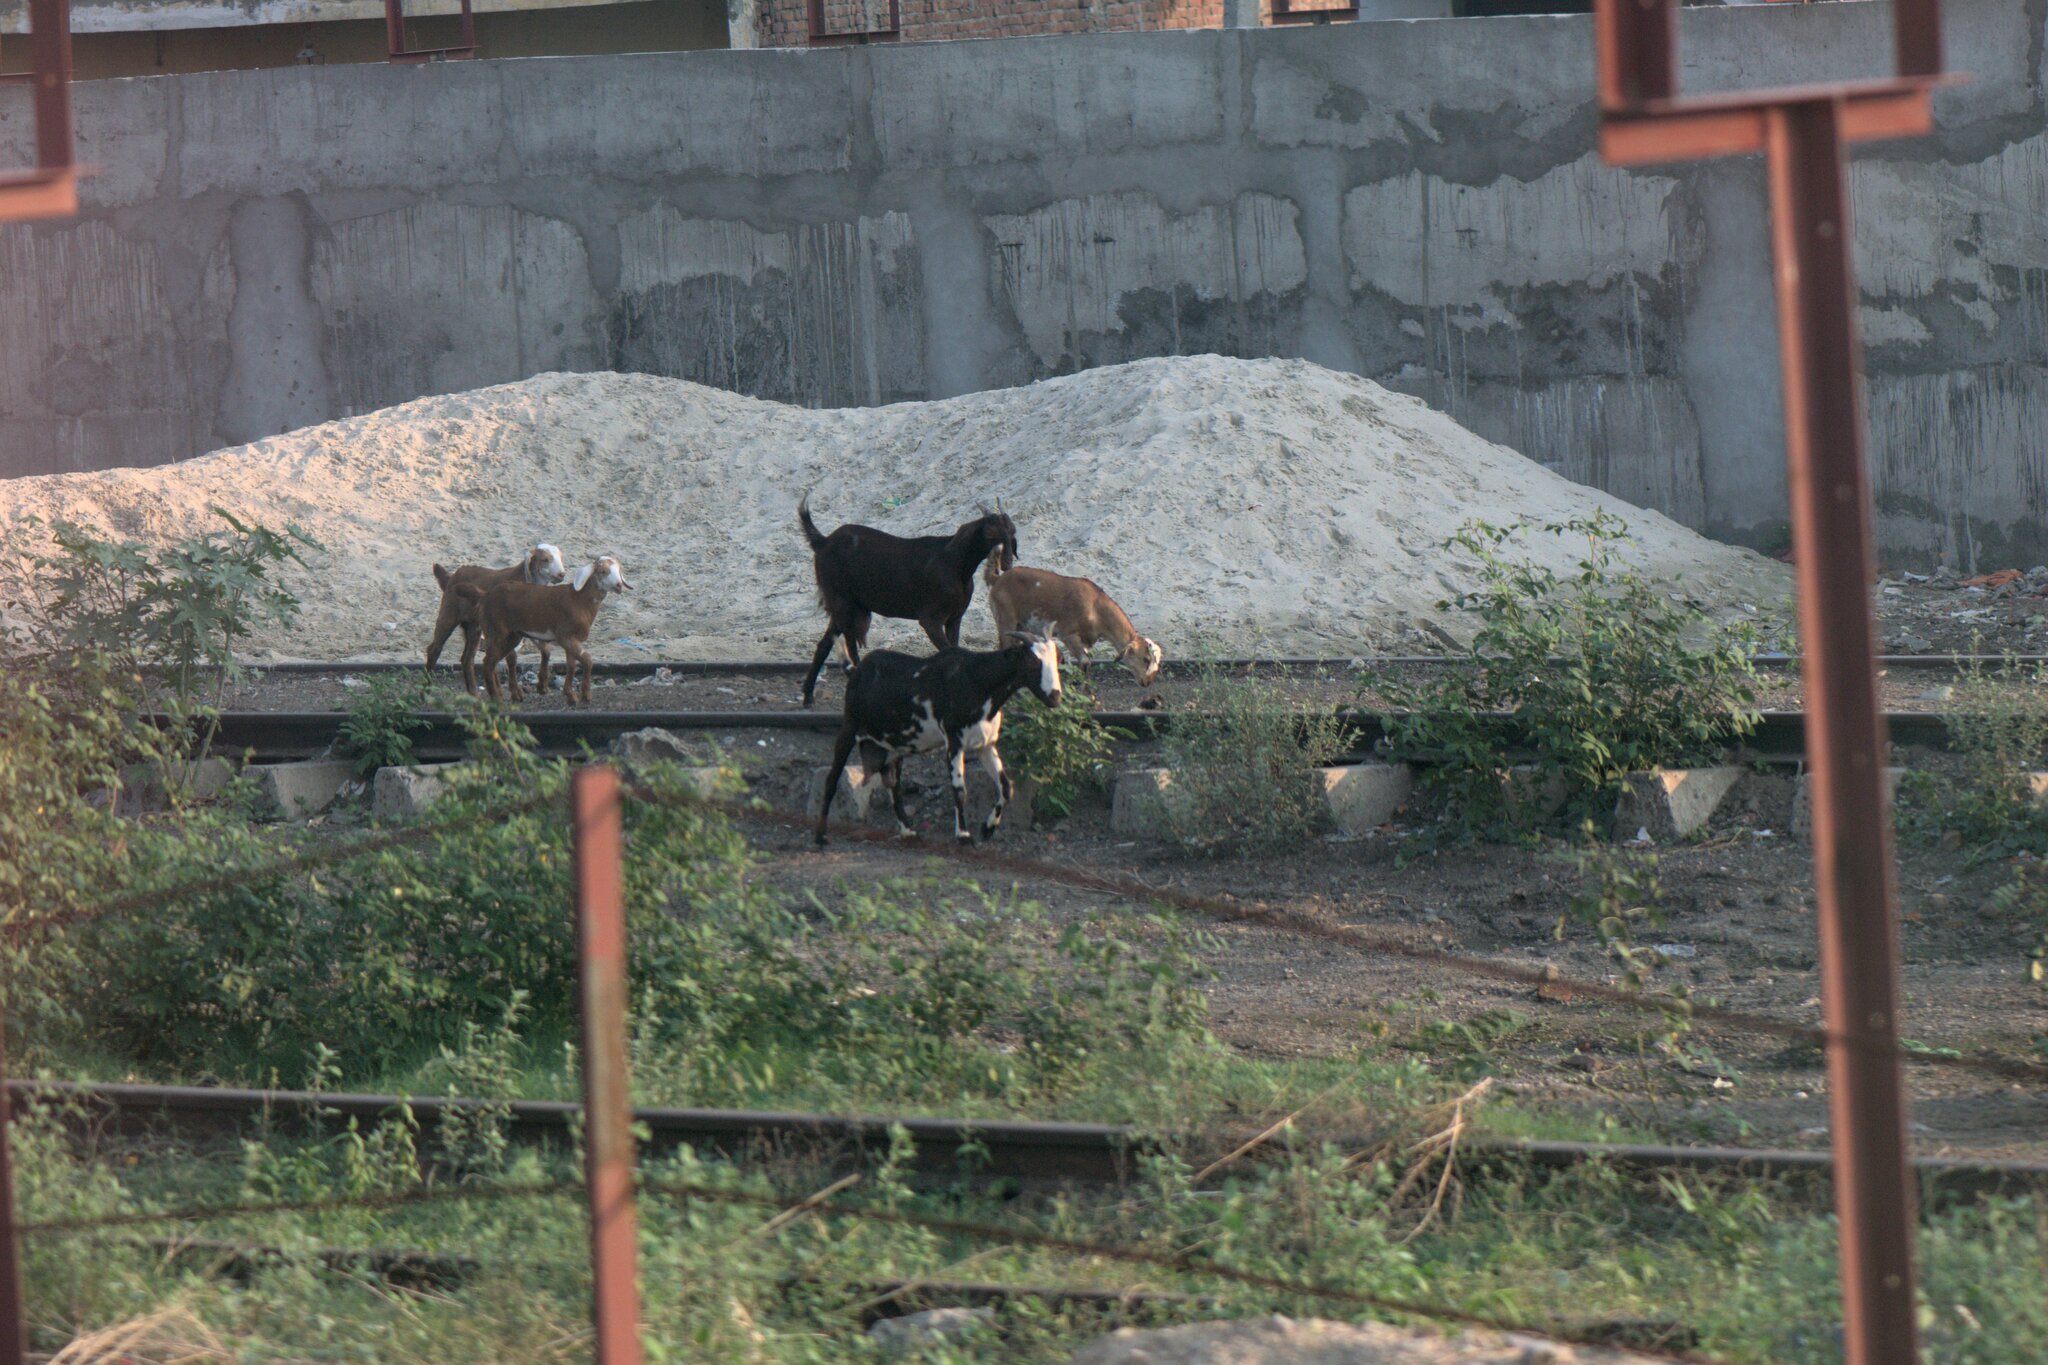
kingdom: Animalia
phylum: Chordata
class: Mammalia
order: Artiodactyla
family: Bovidae
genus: Capra
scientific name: Capra hircus
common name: Domestic goat
